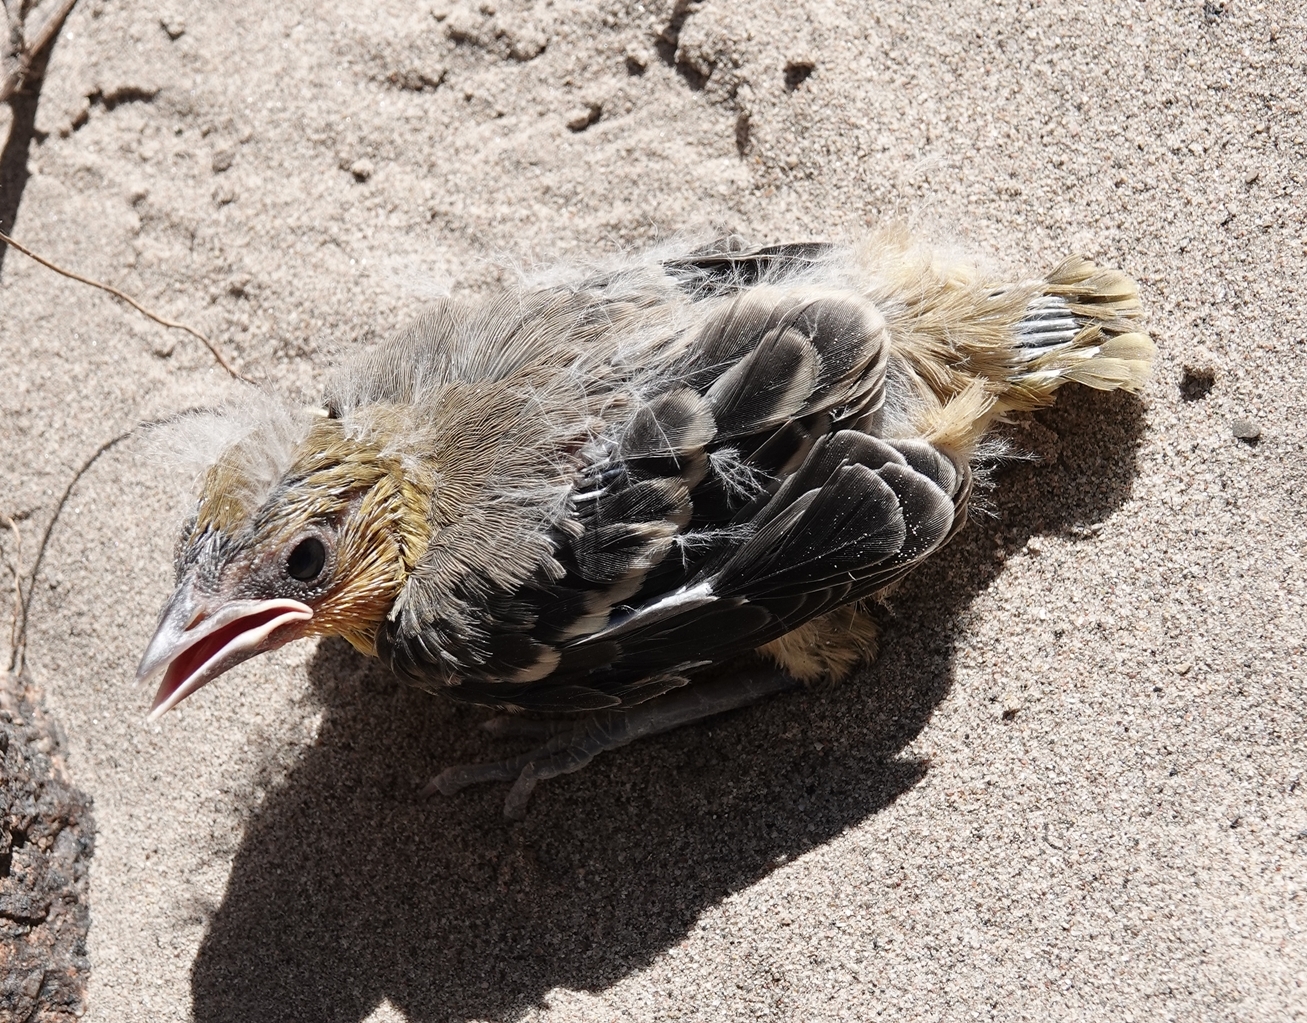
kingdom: Animalia
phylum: Chordata
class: Aves
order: Passeriformes
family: Icteridae
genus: Icterus
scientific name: Icterus bullockii
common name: Bullock's oriole
